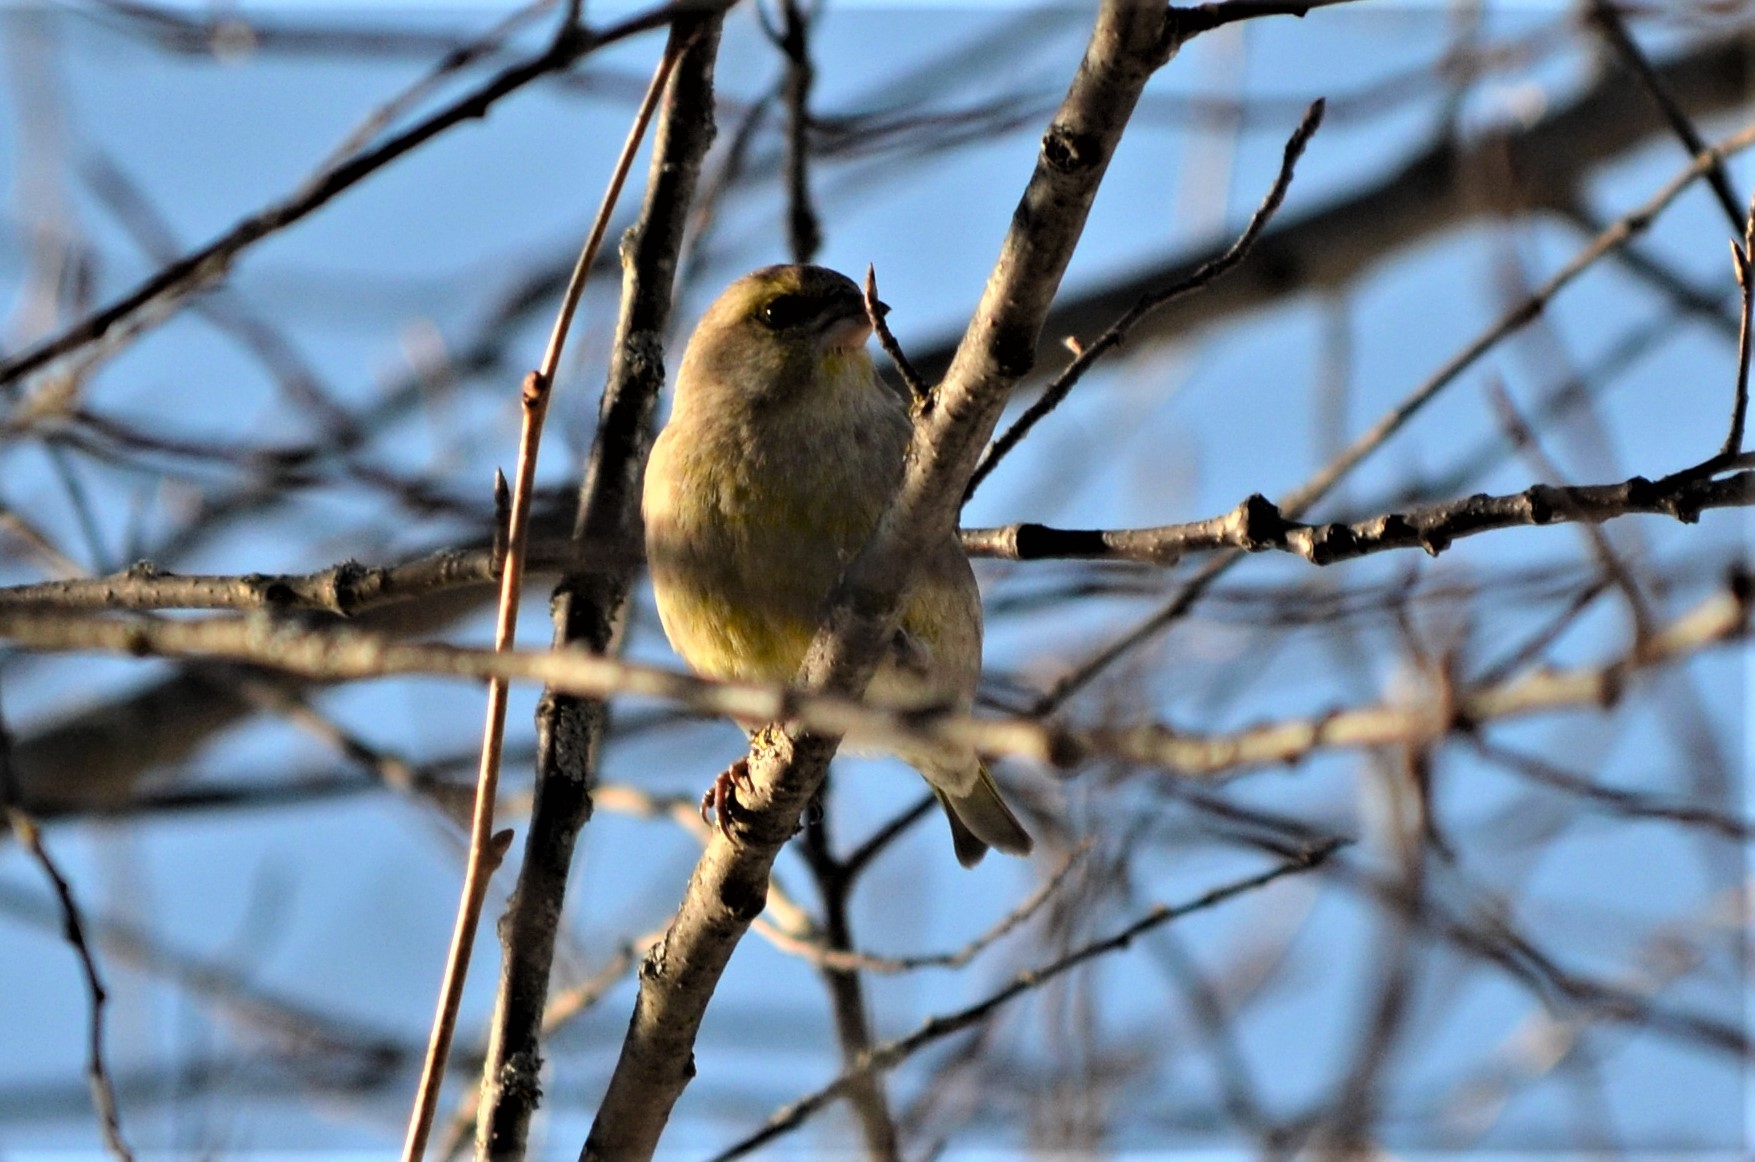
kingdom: Plantae
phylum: Tracheophyta
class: Liliopsida
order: Poales
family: Poaceae
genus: Chloris
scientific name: Chloris chloris
